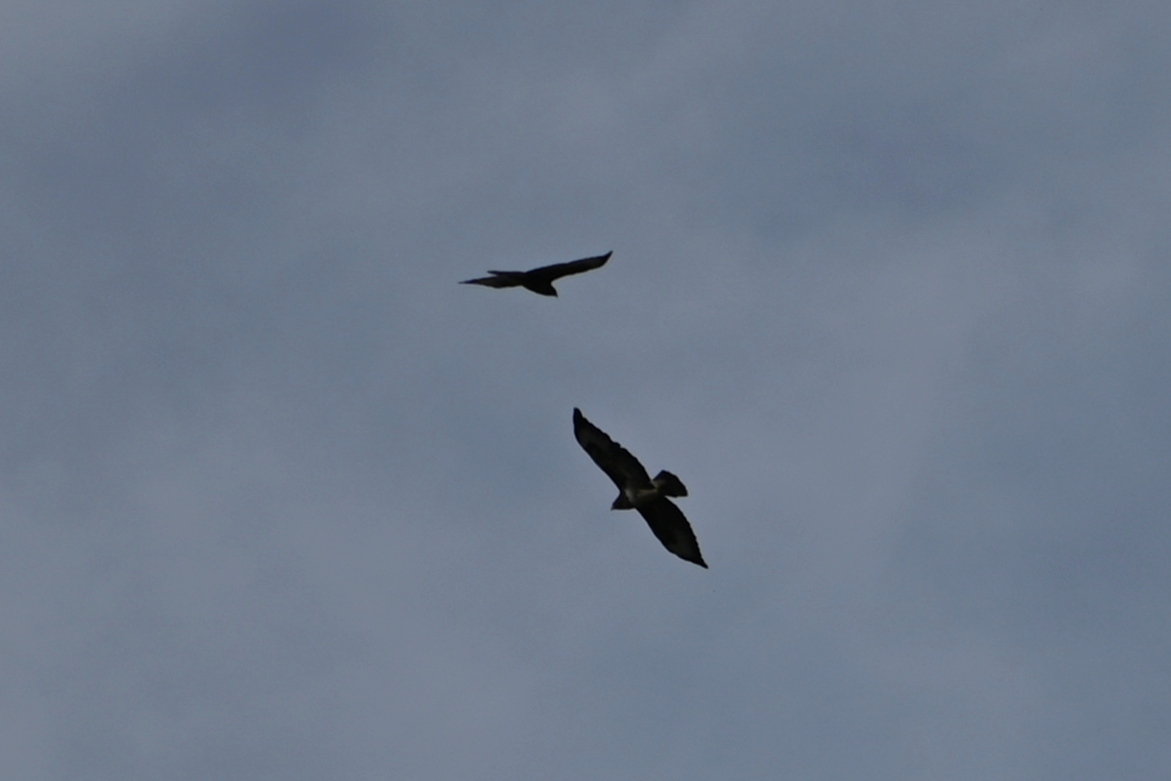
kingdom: Animalia
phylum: Chordata
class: Aves
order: Accipitriformes
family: Accipitridae
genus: Buteo
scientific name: Buteo buteo
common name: Common buzzard
